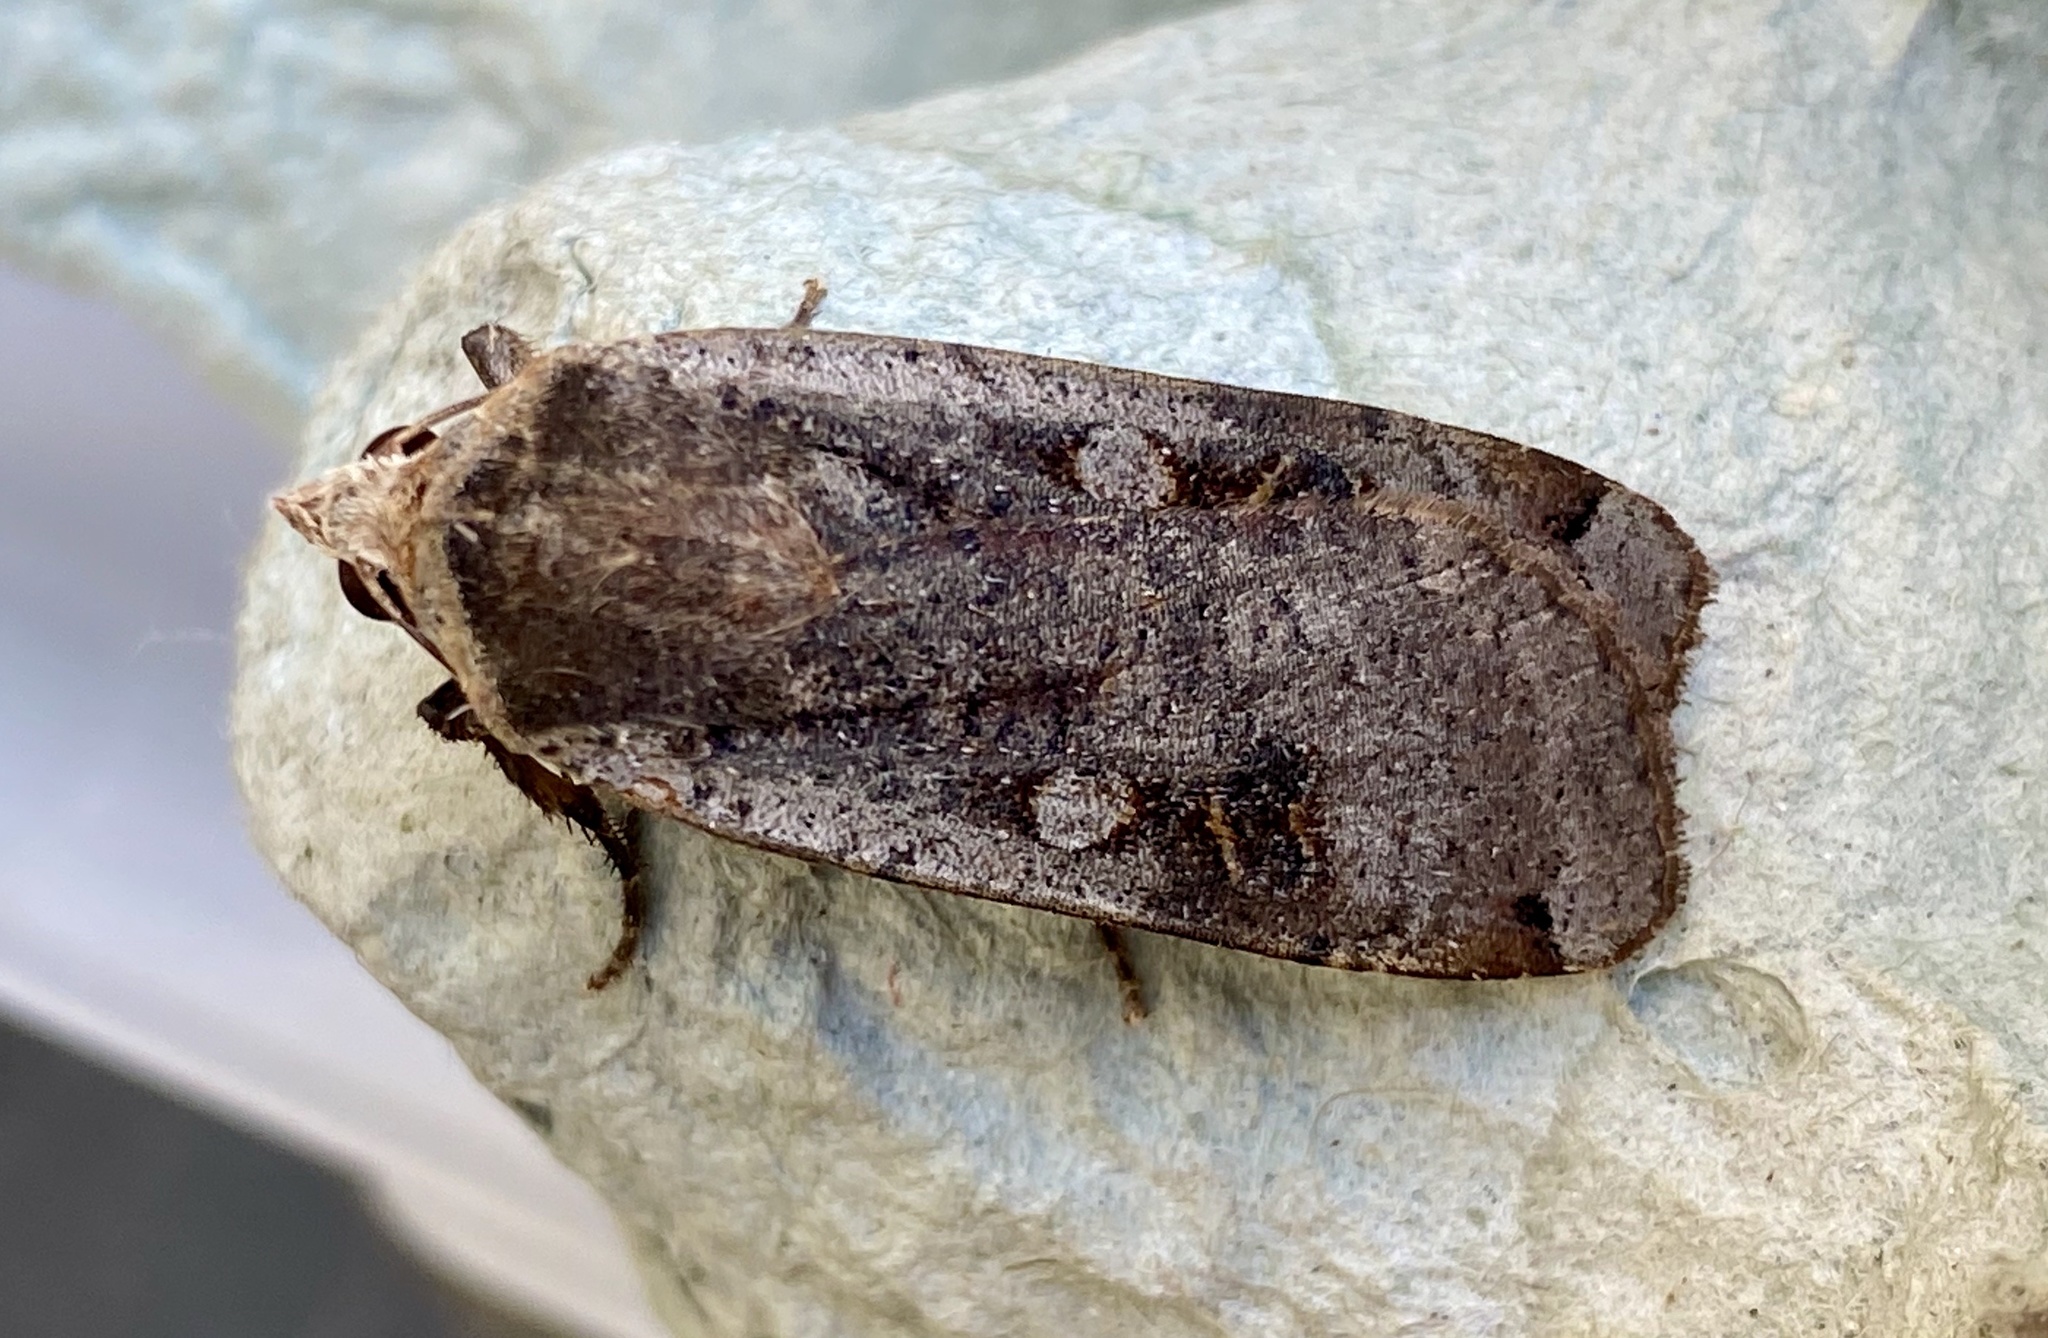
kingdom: Animalia
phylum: Arthropoda
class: Insecta
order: Lepidoptera
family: Noctuidae
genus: Noctua
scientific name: Noctua pronuba
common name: Large yellow underwing
